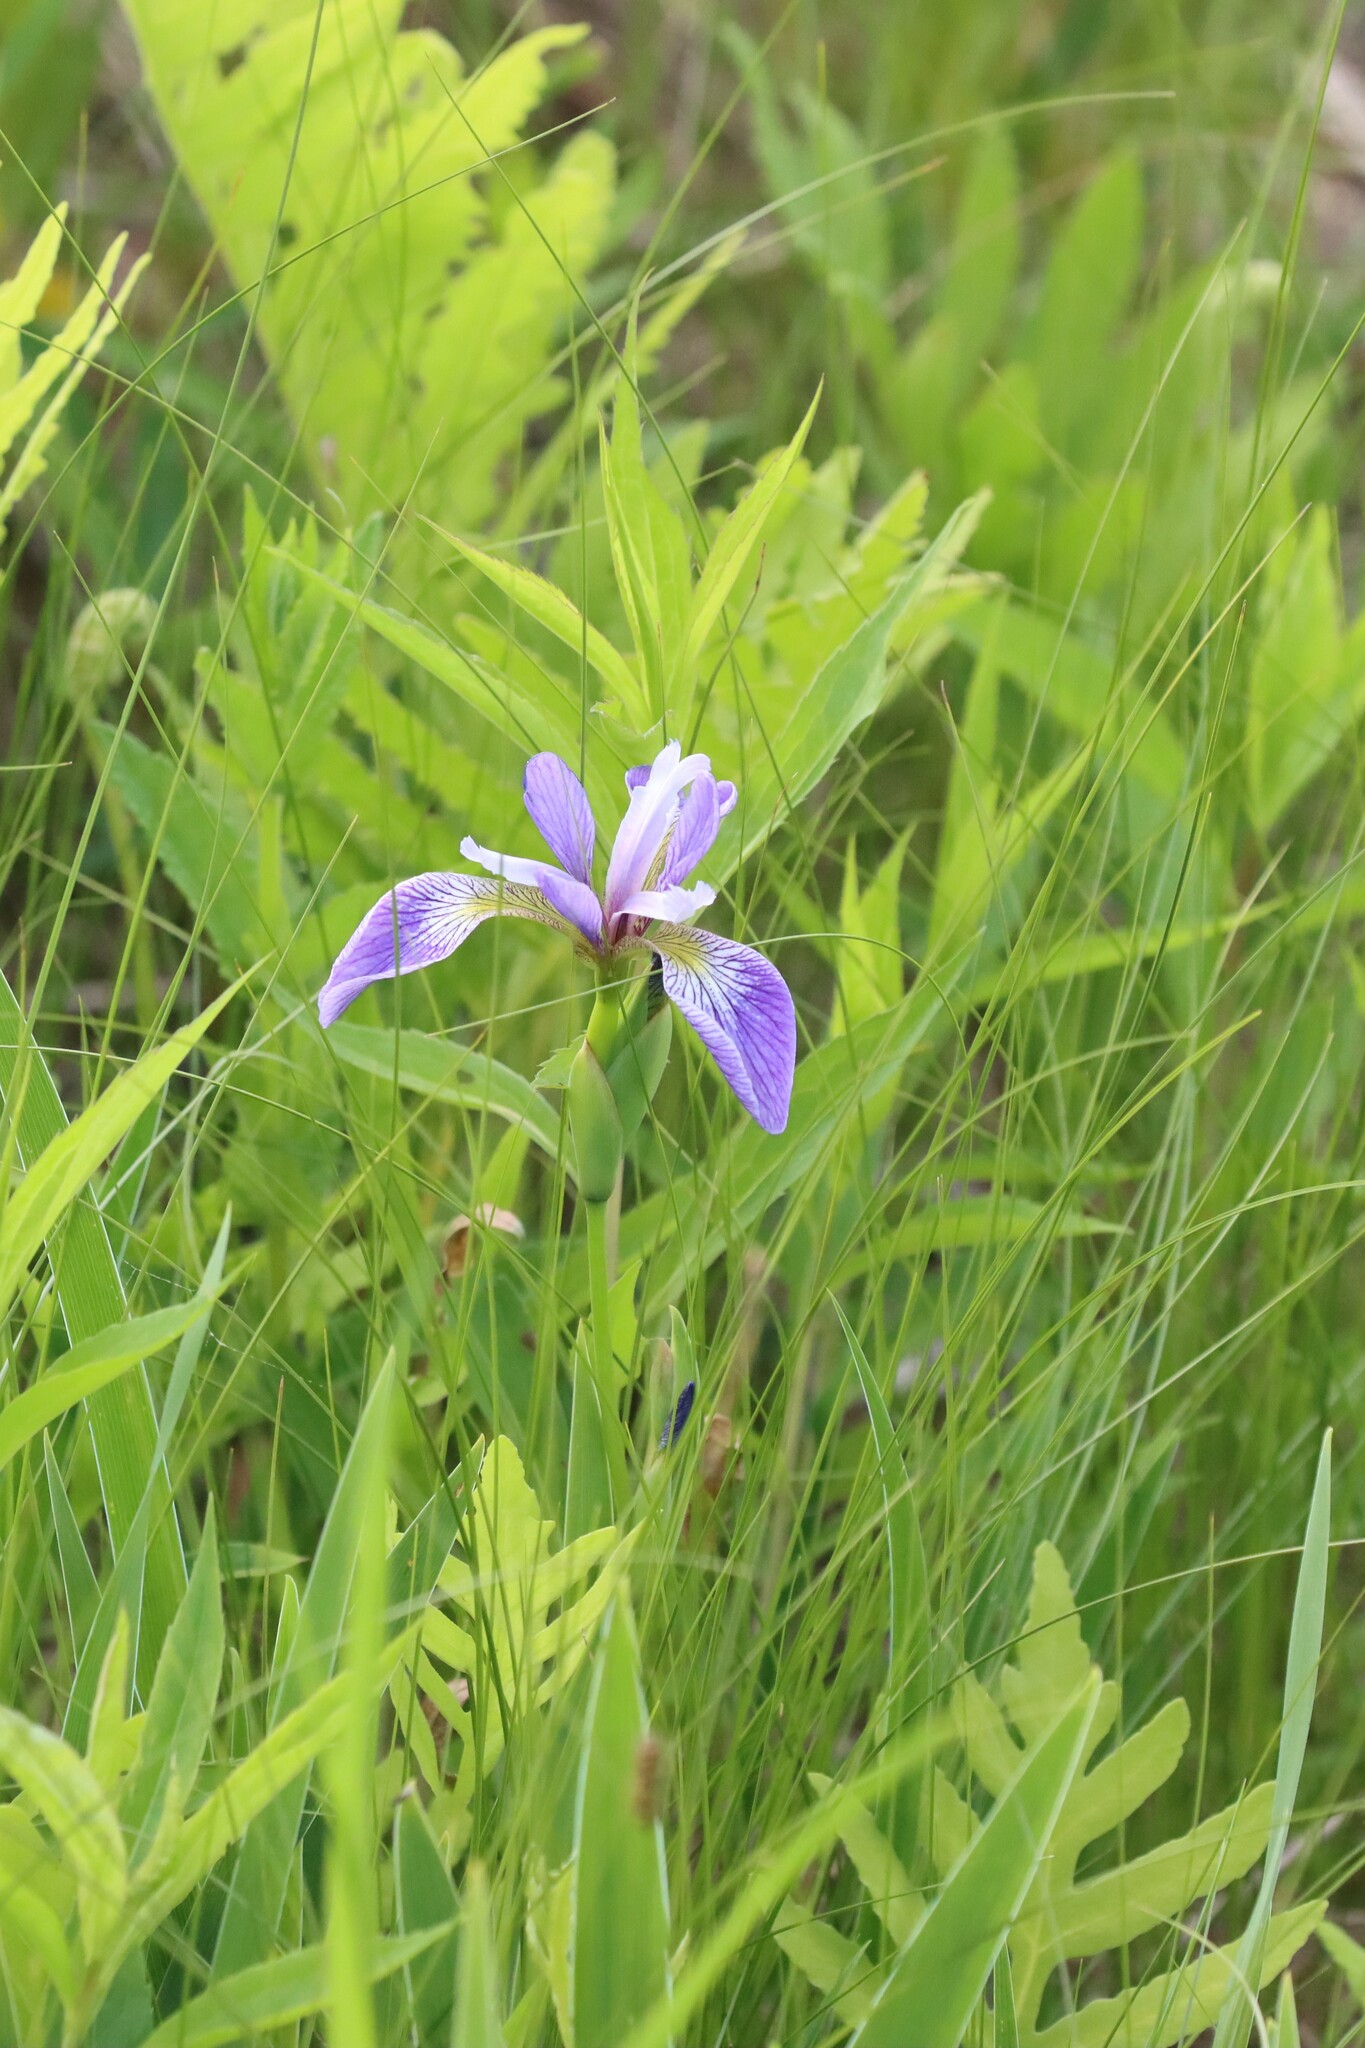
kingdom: Plantae
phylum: Tracheophyta
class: Liliopsida
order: Asparagales
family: Iridaceae
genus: Iris
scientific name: Iris versicolor
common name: Purple iris
